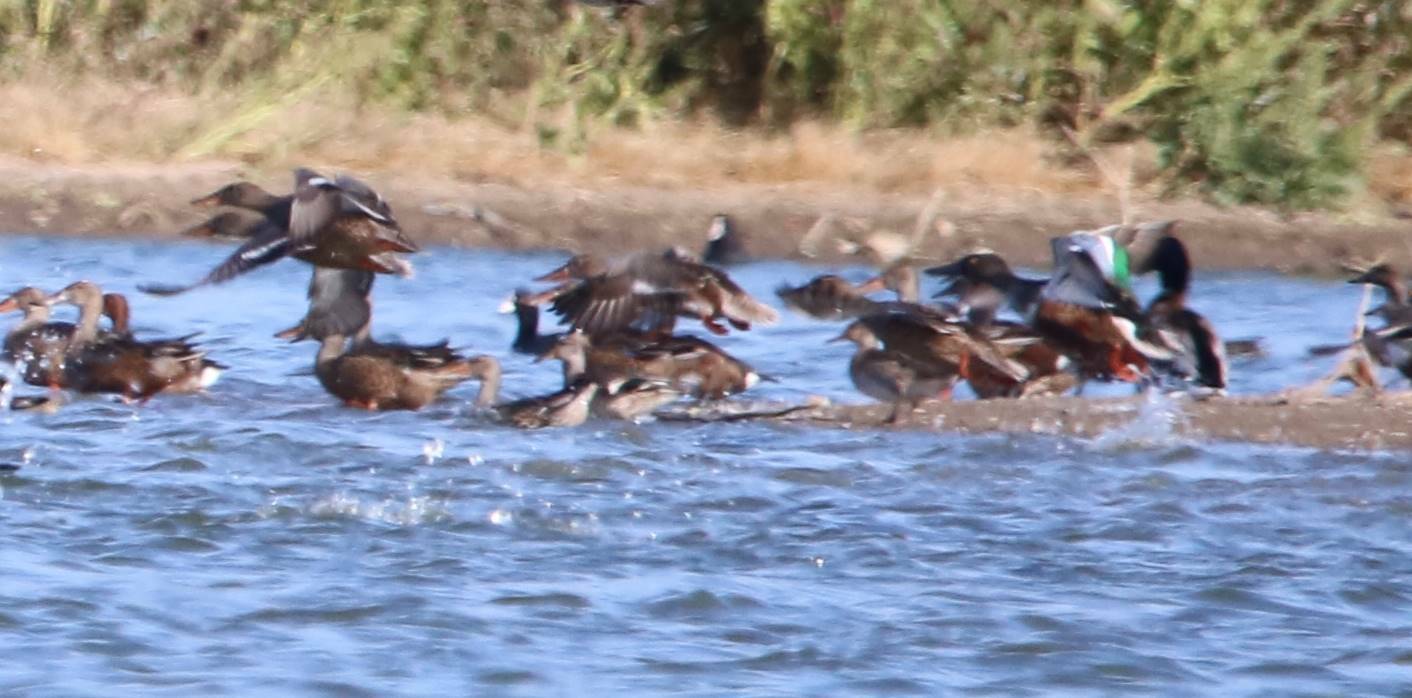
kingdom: Animalia
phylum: Chordata
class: Aves
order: Anseriformes
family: Anatidae
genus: Spatula
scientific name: Spatula clypeata
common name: Northern shoveler
